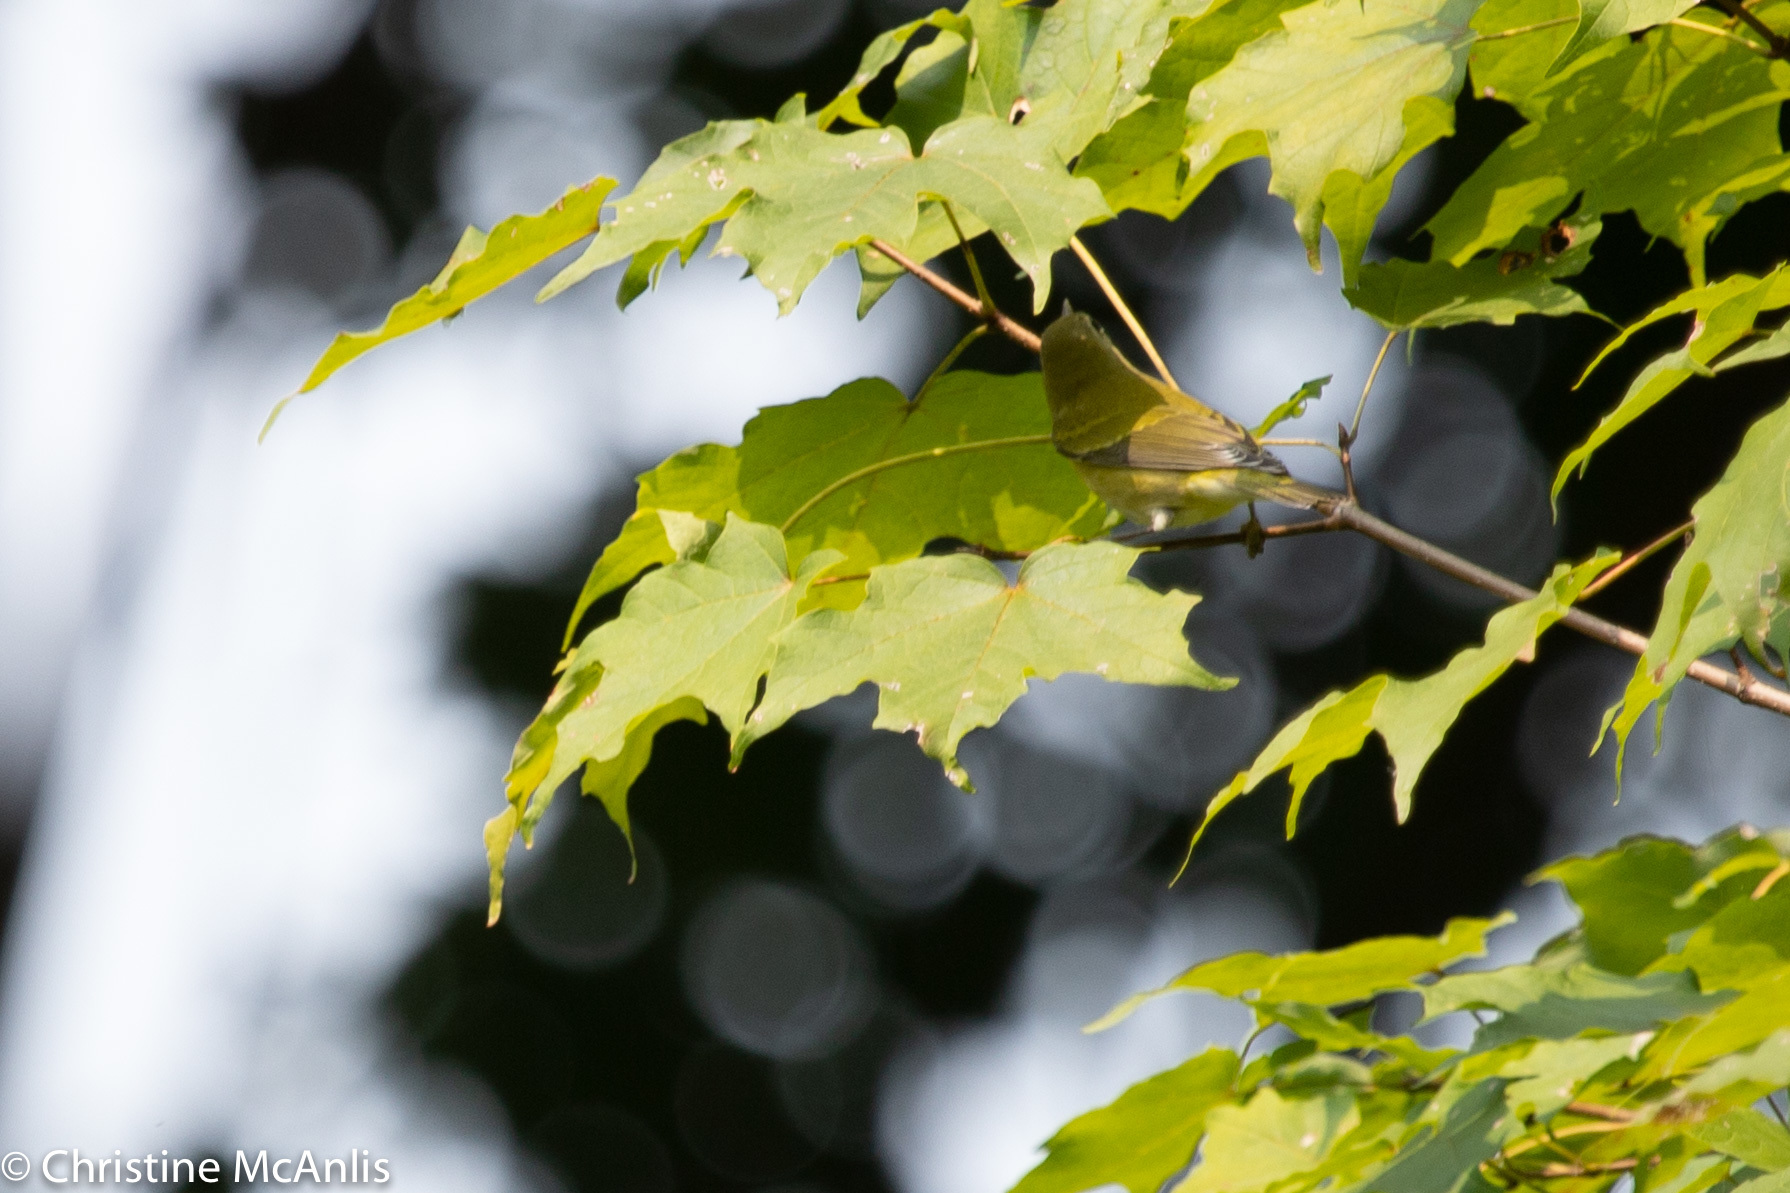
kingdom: Animalia
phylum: Chordata
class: Aves
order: Passeriformes
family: Parulidae
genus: Leiothlypis
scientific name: Leiothlypis peregrina
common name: Tennessee warbler
